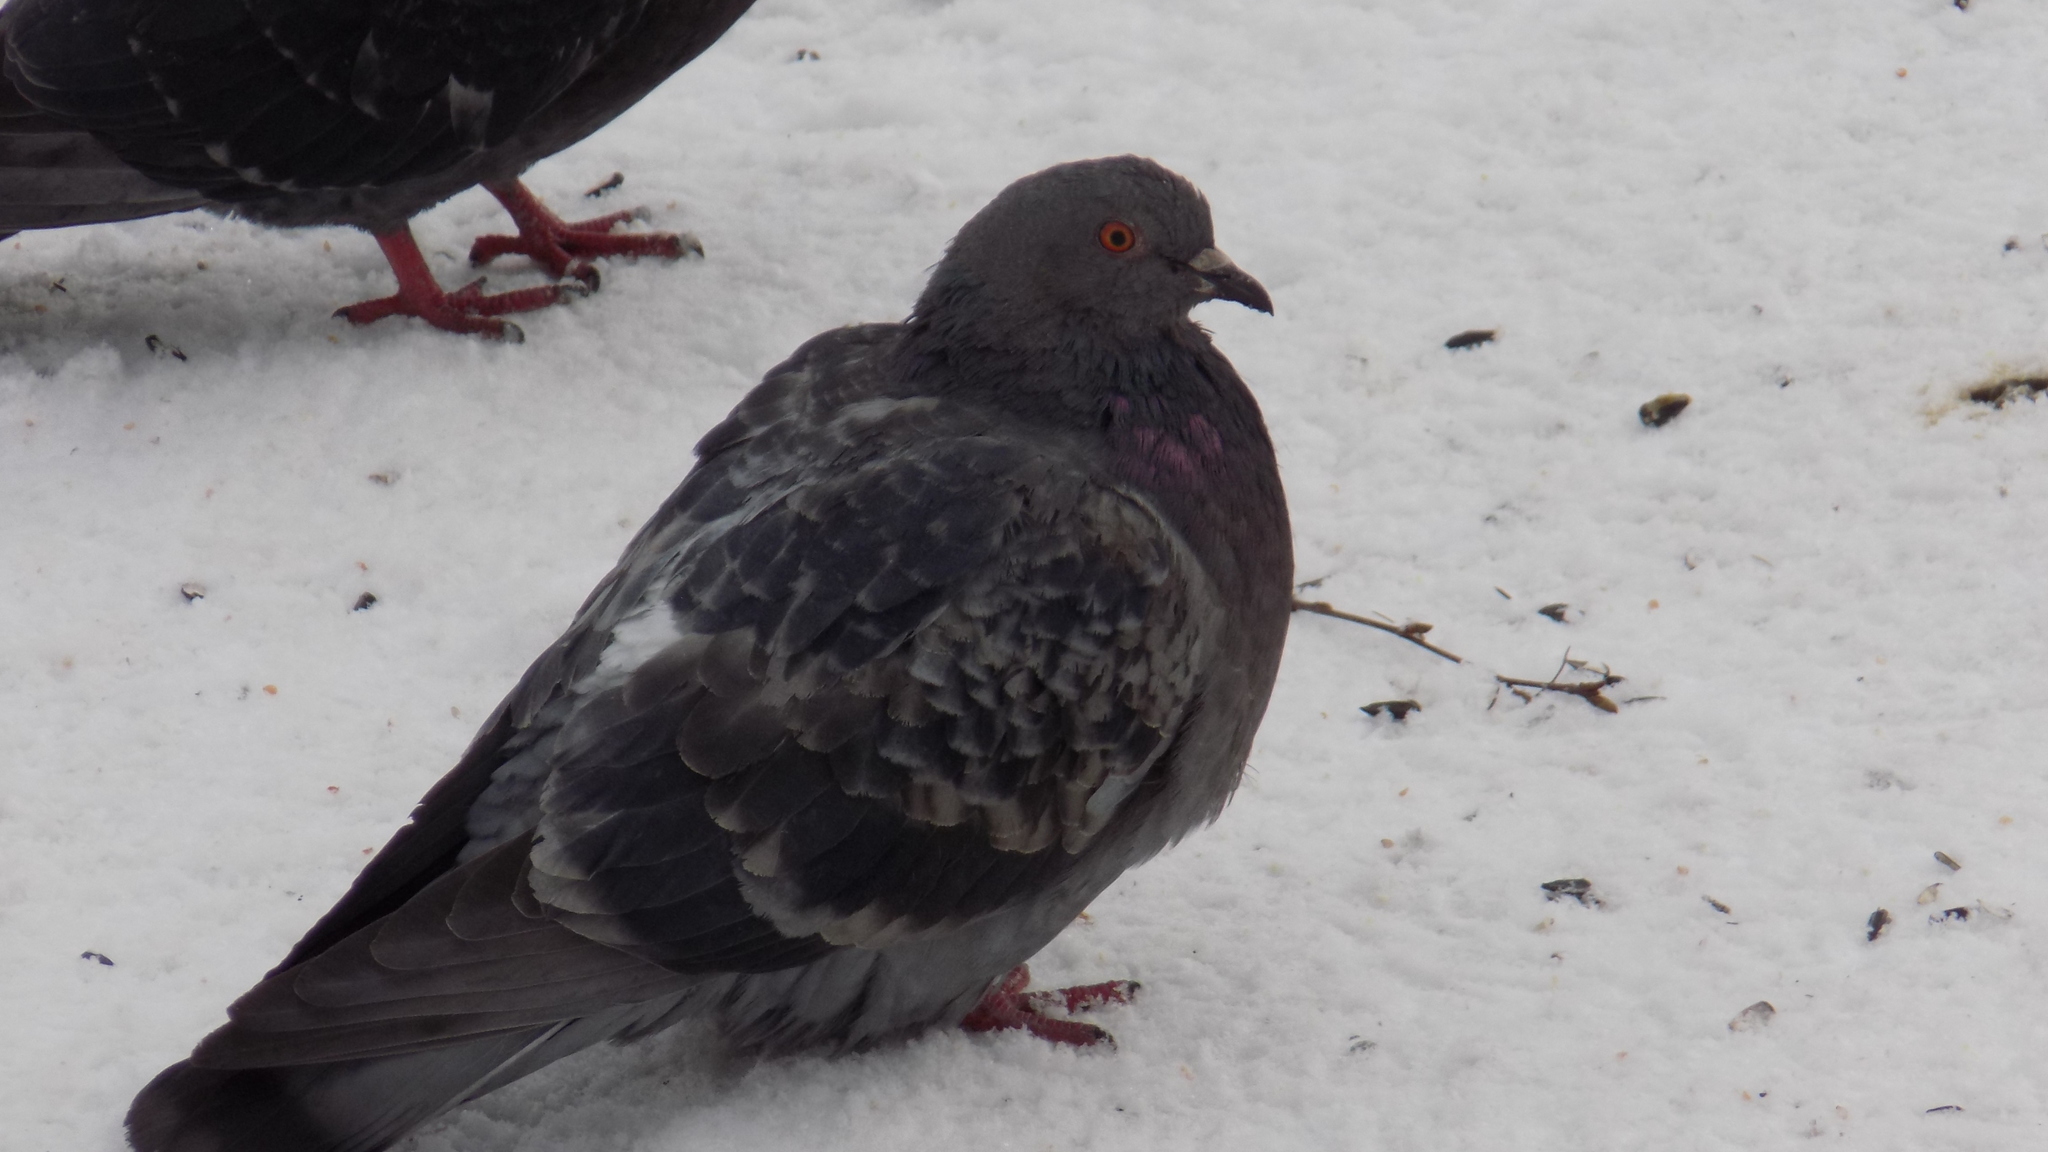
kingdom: Animalia
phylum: Chordata
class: Aves
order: Columbiformes
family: Columbidae
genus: Columba
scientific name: Columba livia
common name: Rock pigeon
